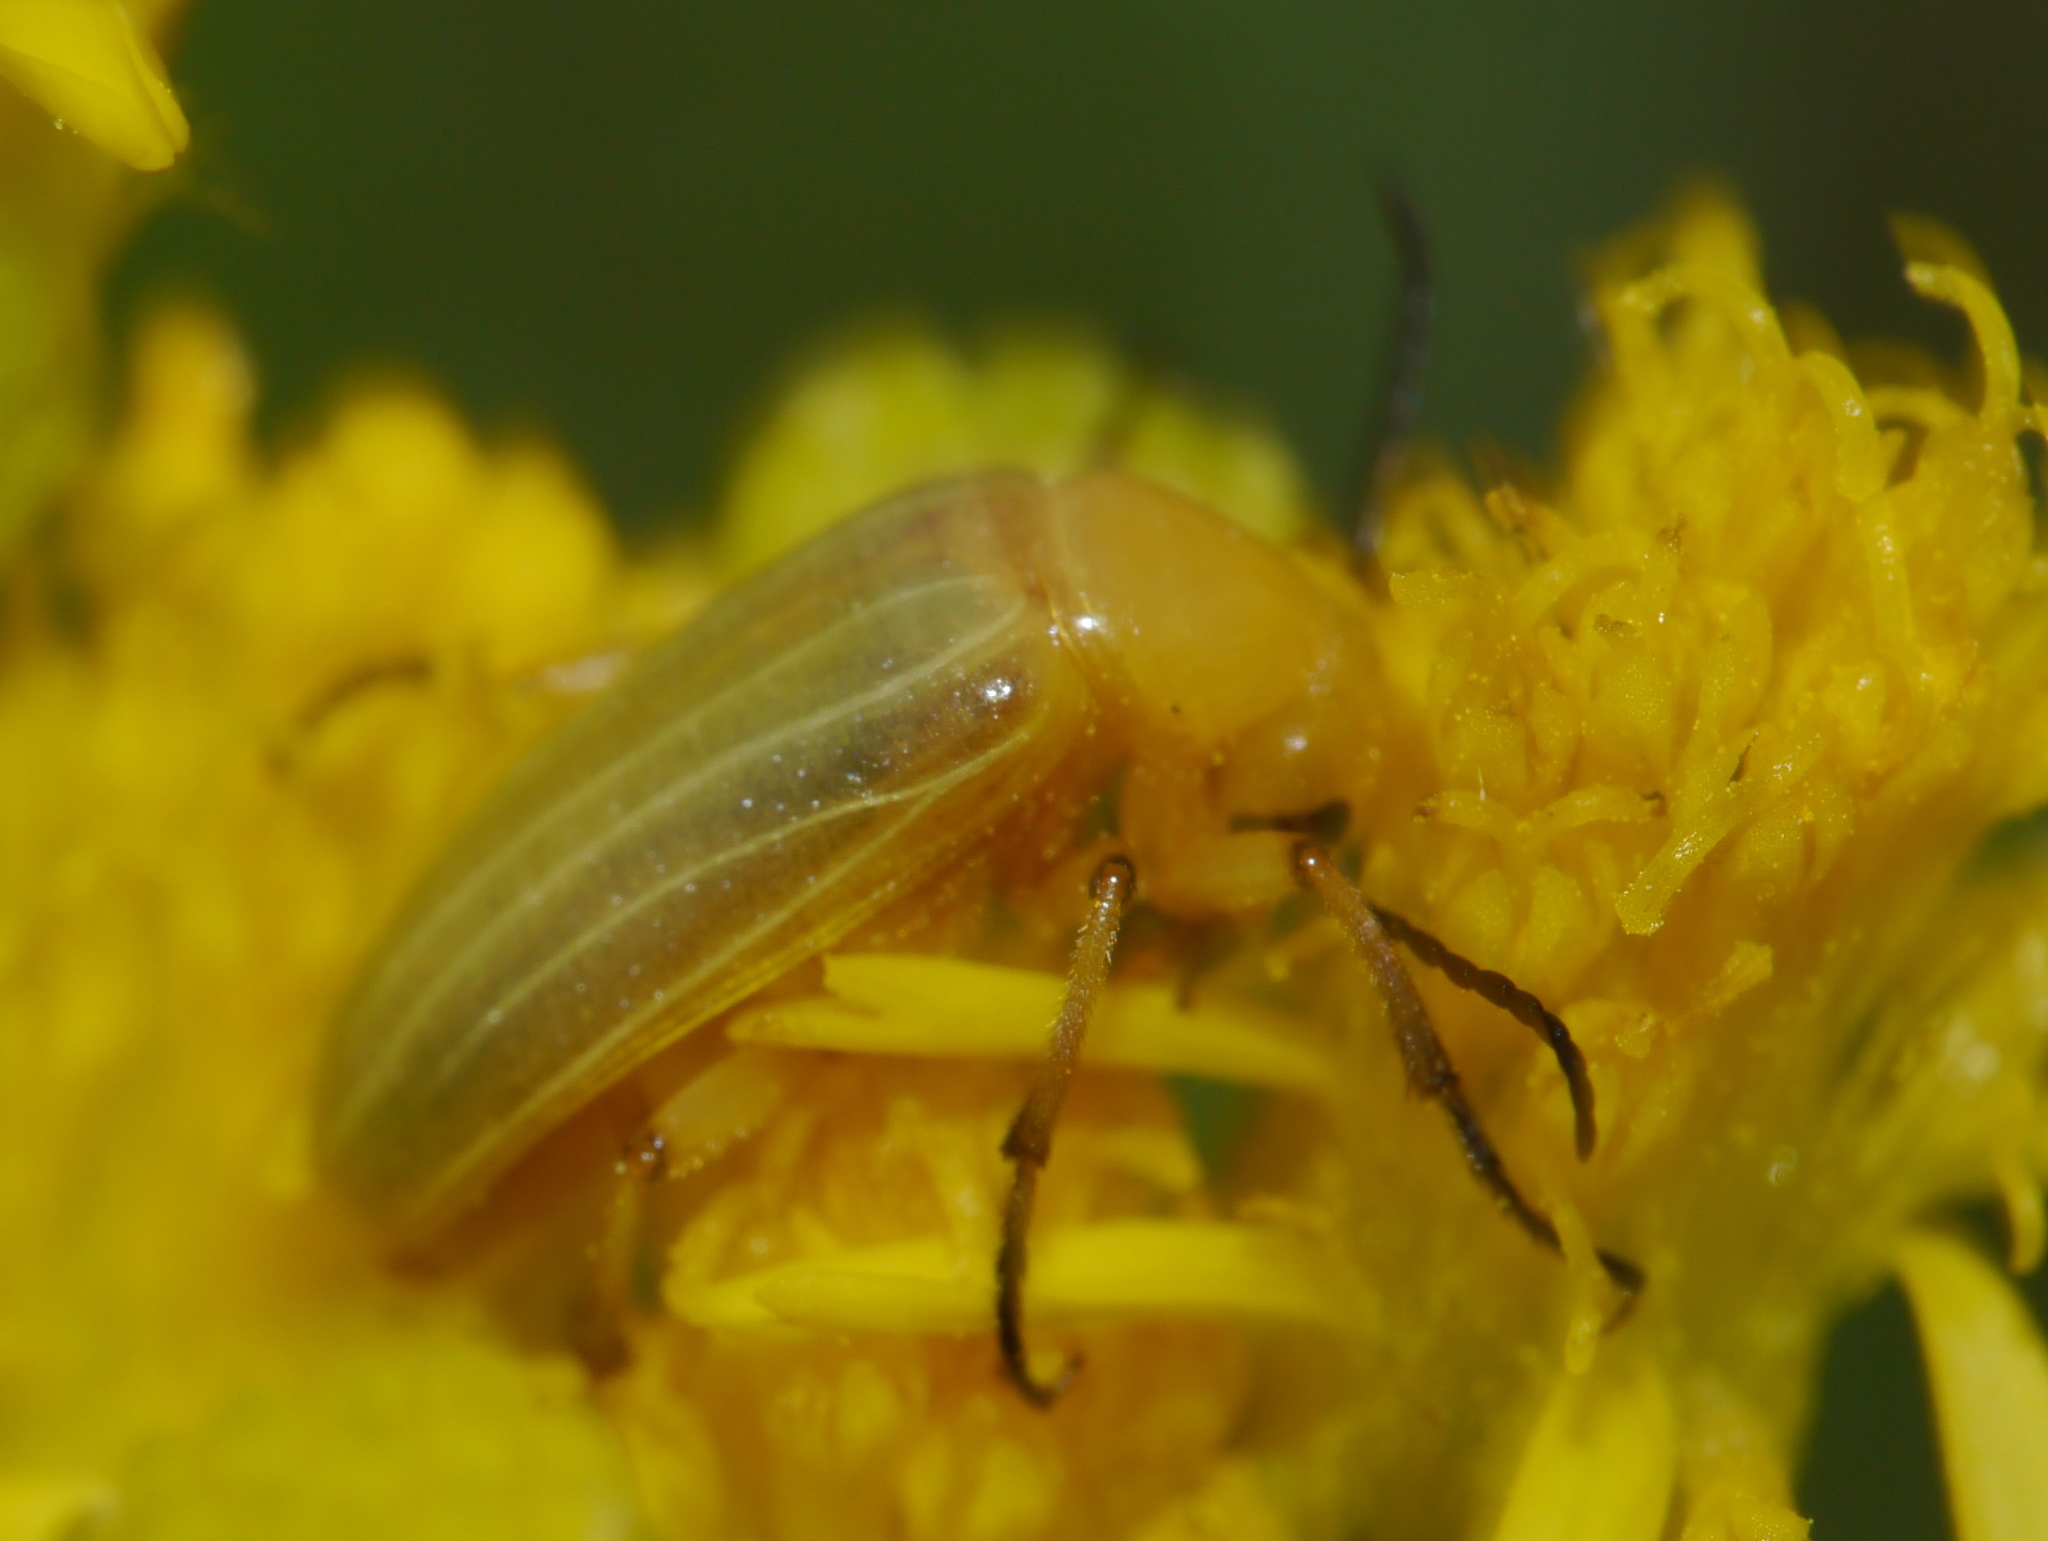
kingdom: Animalia
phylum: Arthropoda
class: Insecta
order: Coleoptera
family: Meloidae
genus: Zonitis
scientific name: Zonitis dunniana
